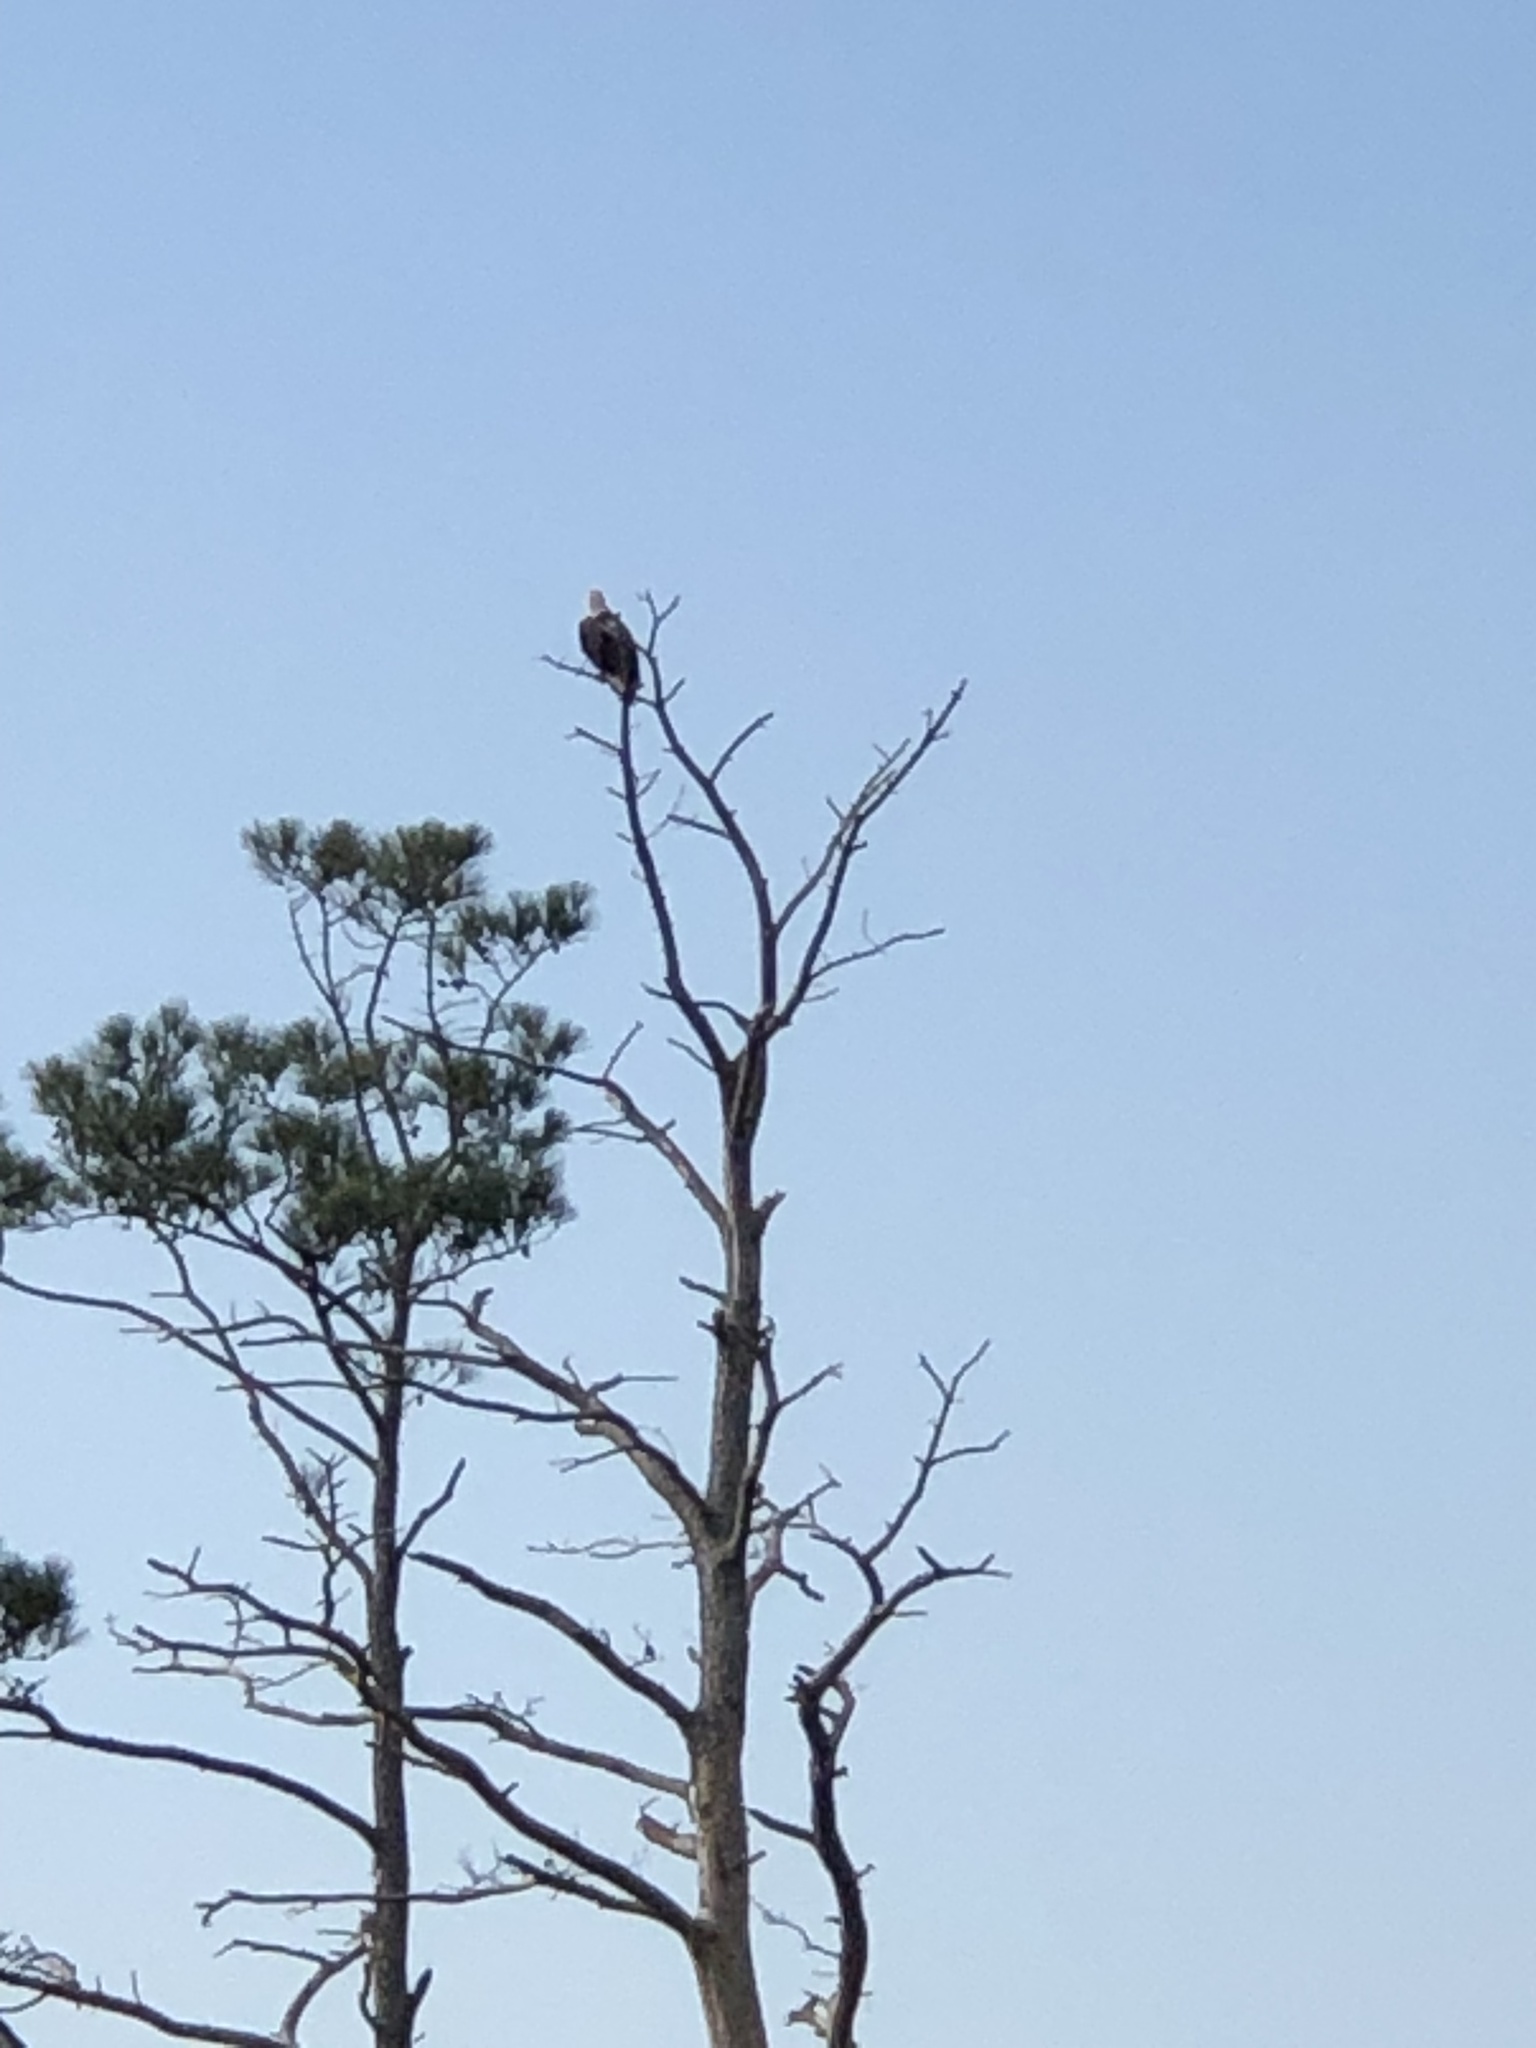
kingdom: Animalia
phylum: Chordata
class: Aves
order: Accipitriformes
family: Accipitridae
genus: Haliaeetus
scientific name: Haliaeetus leucocephalus
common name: Bald eagle
